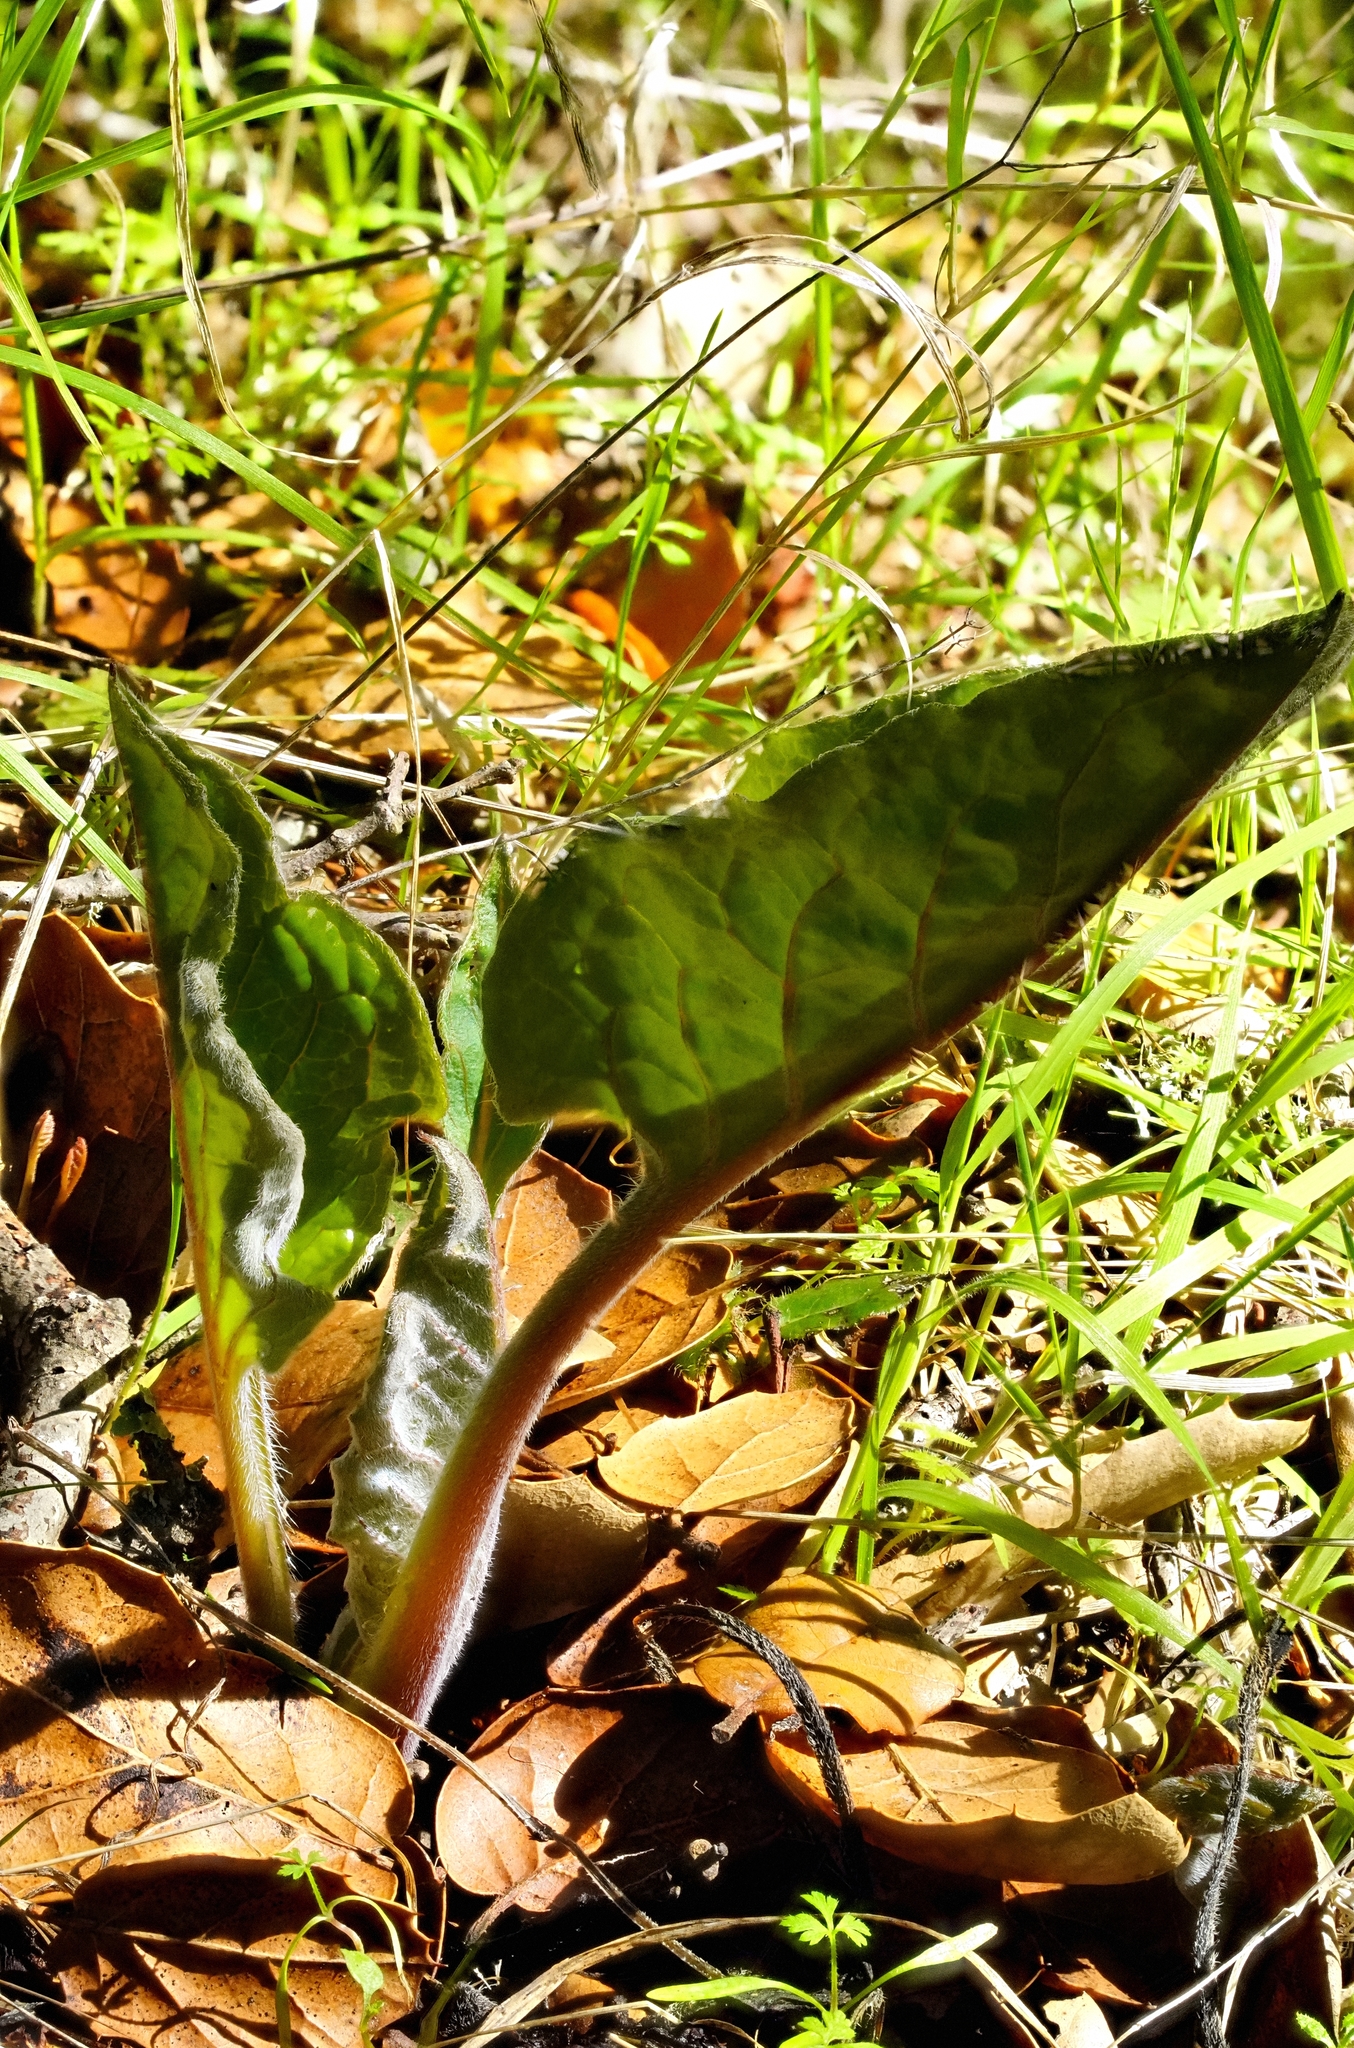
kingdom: Plantae
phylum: Tracheophyta
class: Magnoliopsida
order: Boraginales
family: Boraginaceae
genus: Adelinia
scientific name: Adelinia grande
